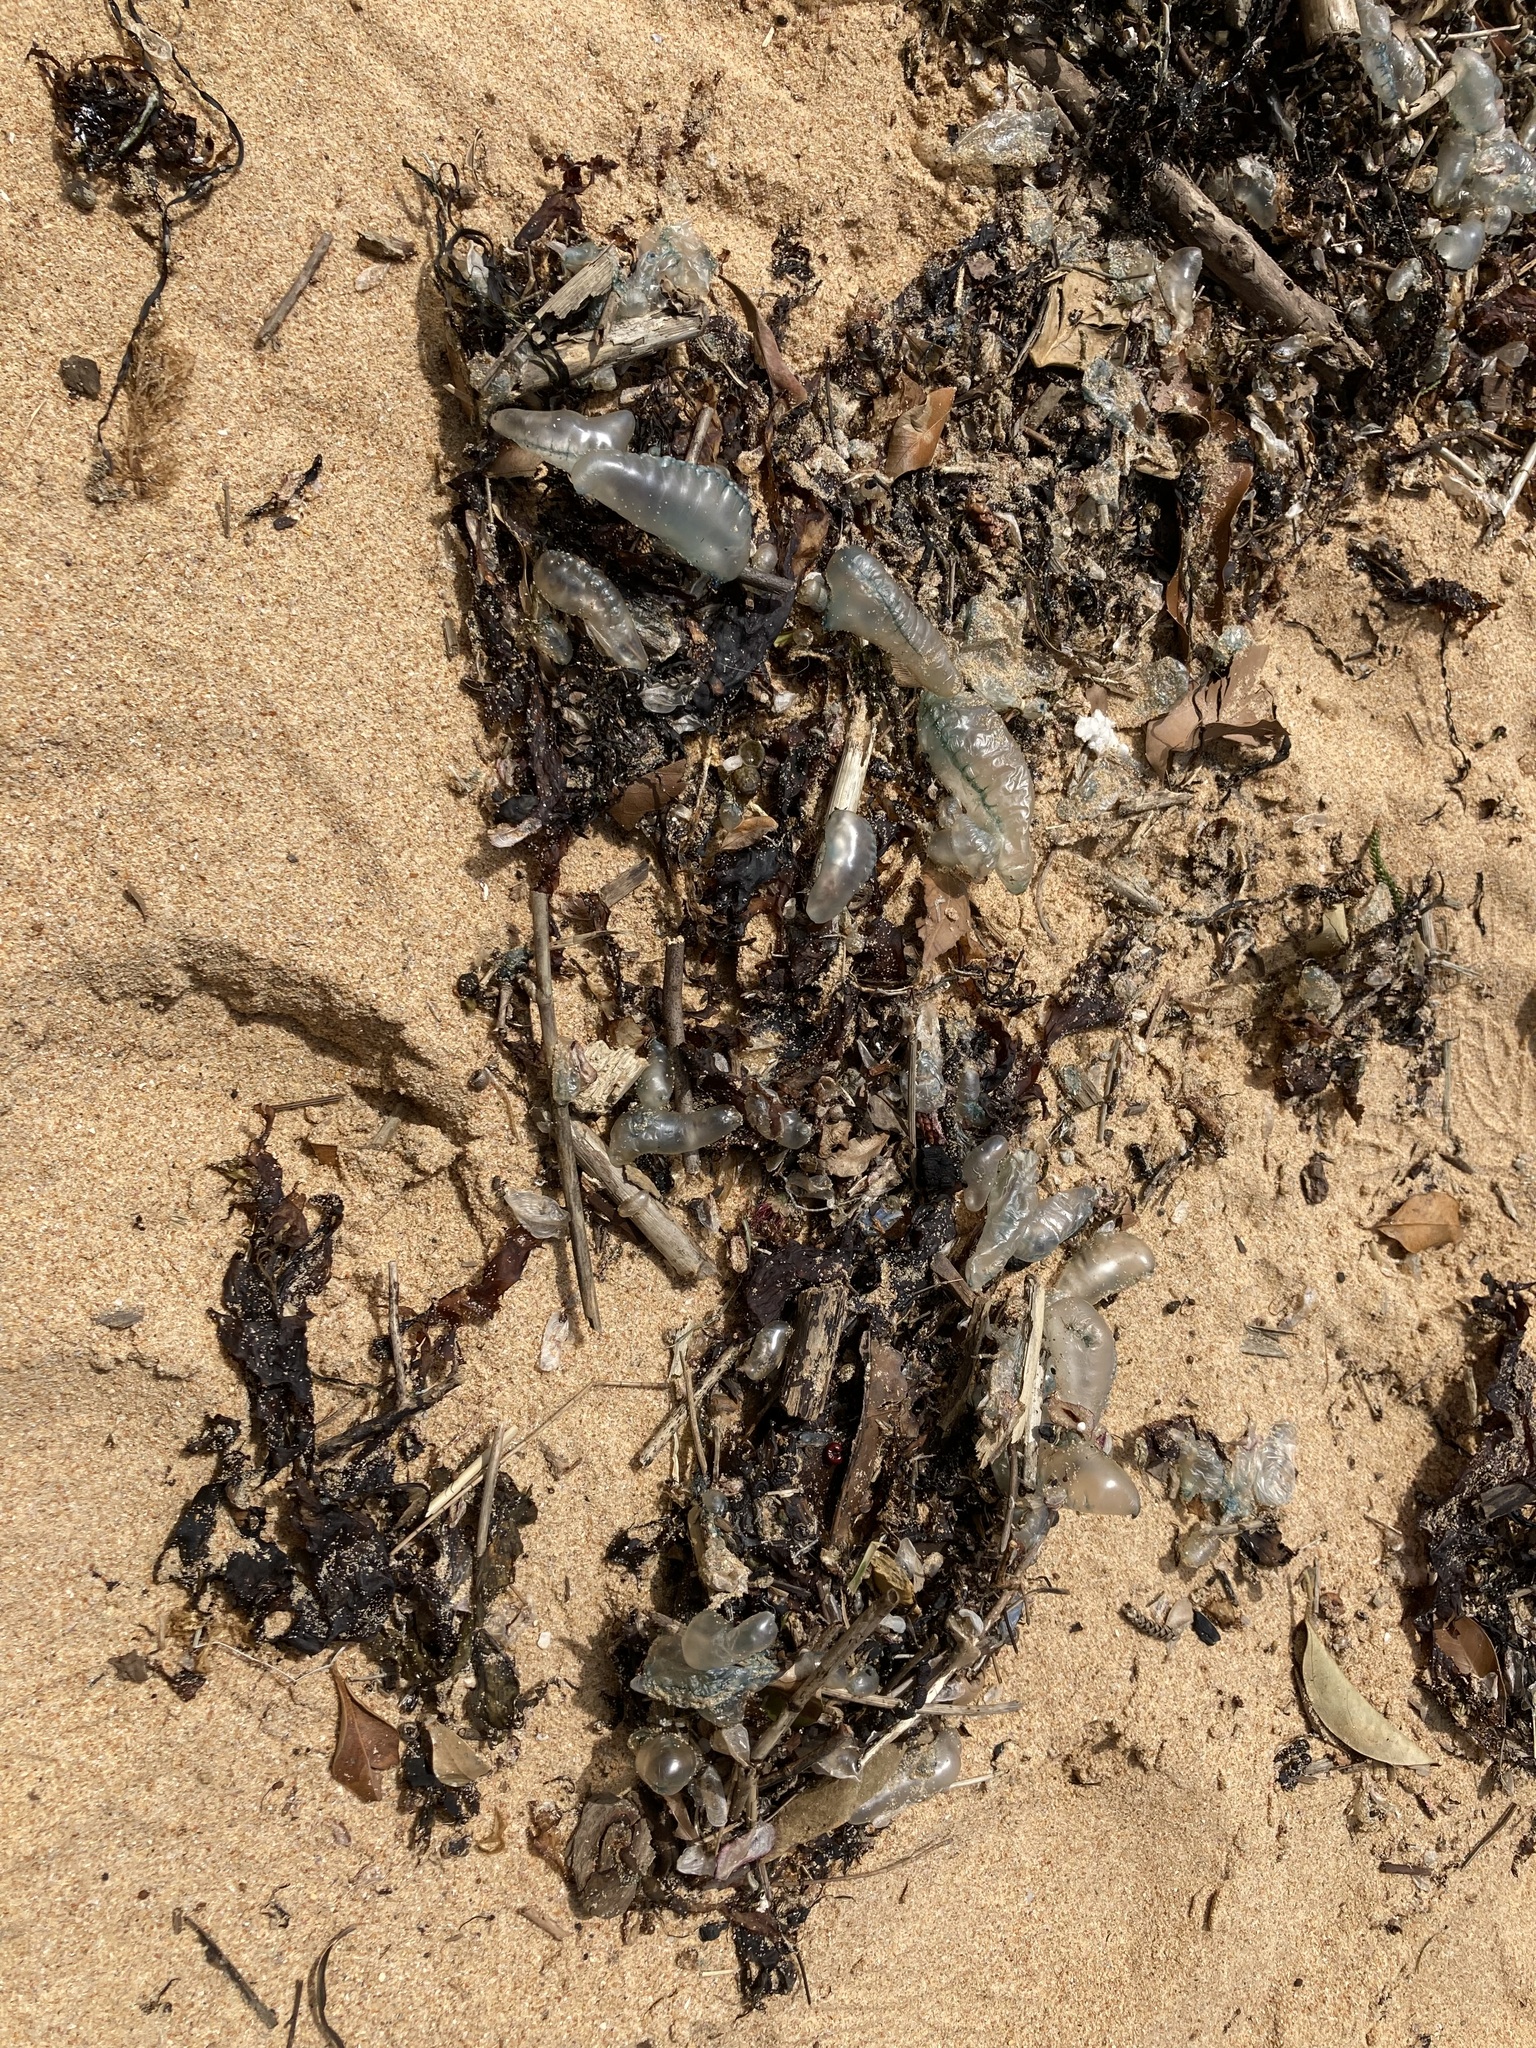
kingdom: Animalia
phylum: Cnidaria
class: Hydrozoa
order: Siphonophorae
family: Physaliidae
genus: Physalia
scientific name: Physalia physalis
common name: Portuguese man-of-war
